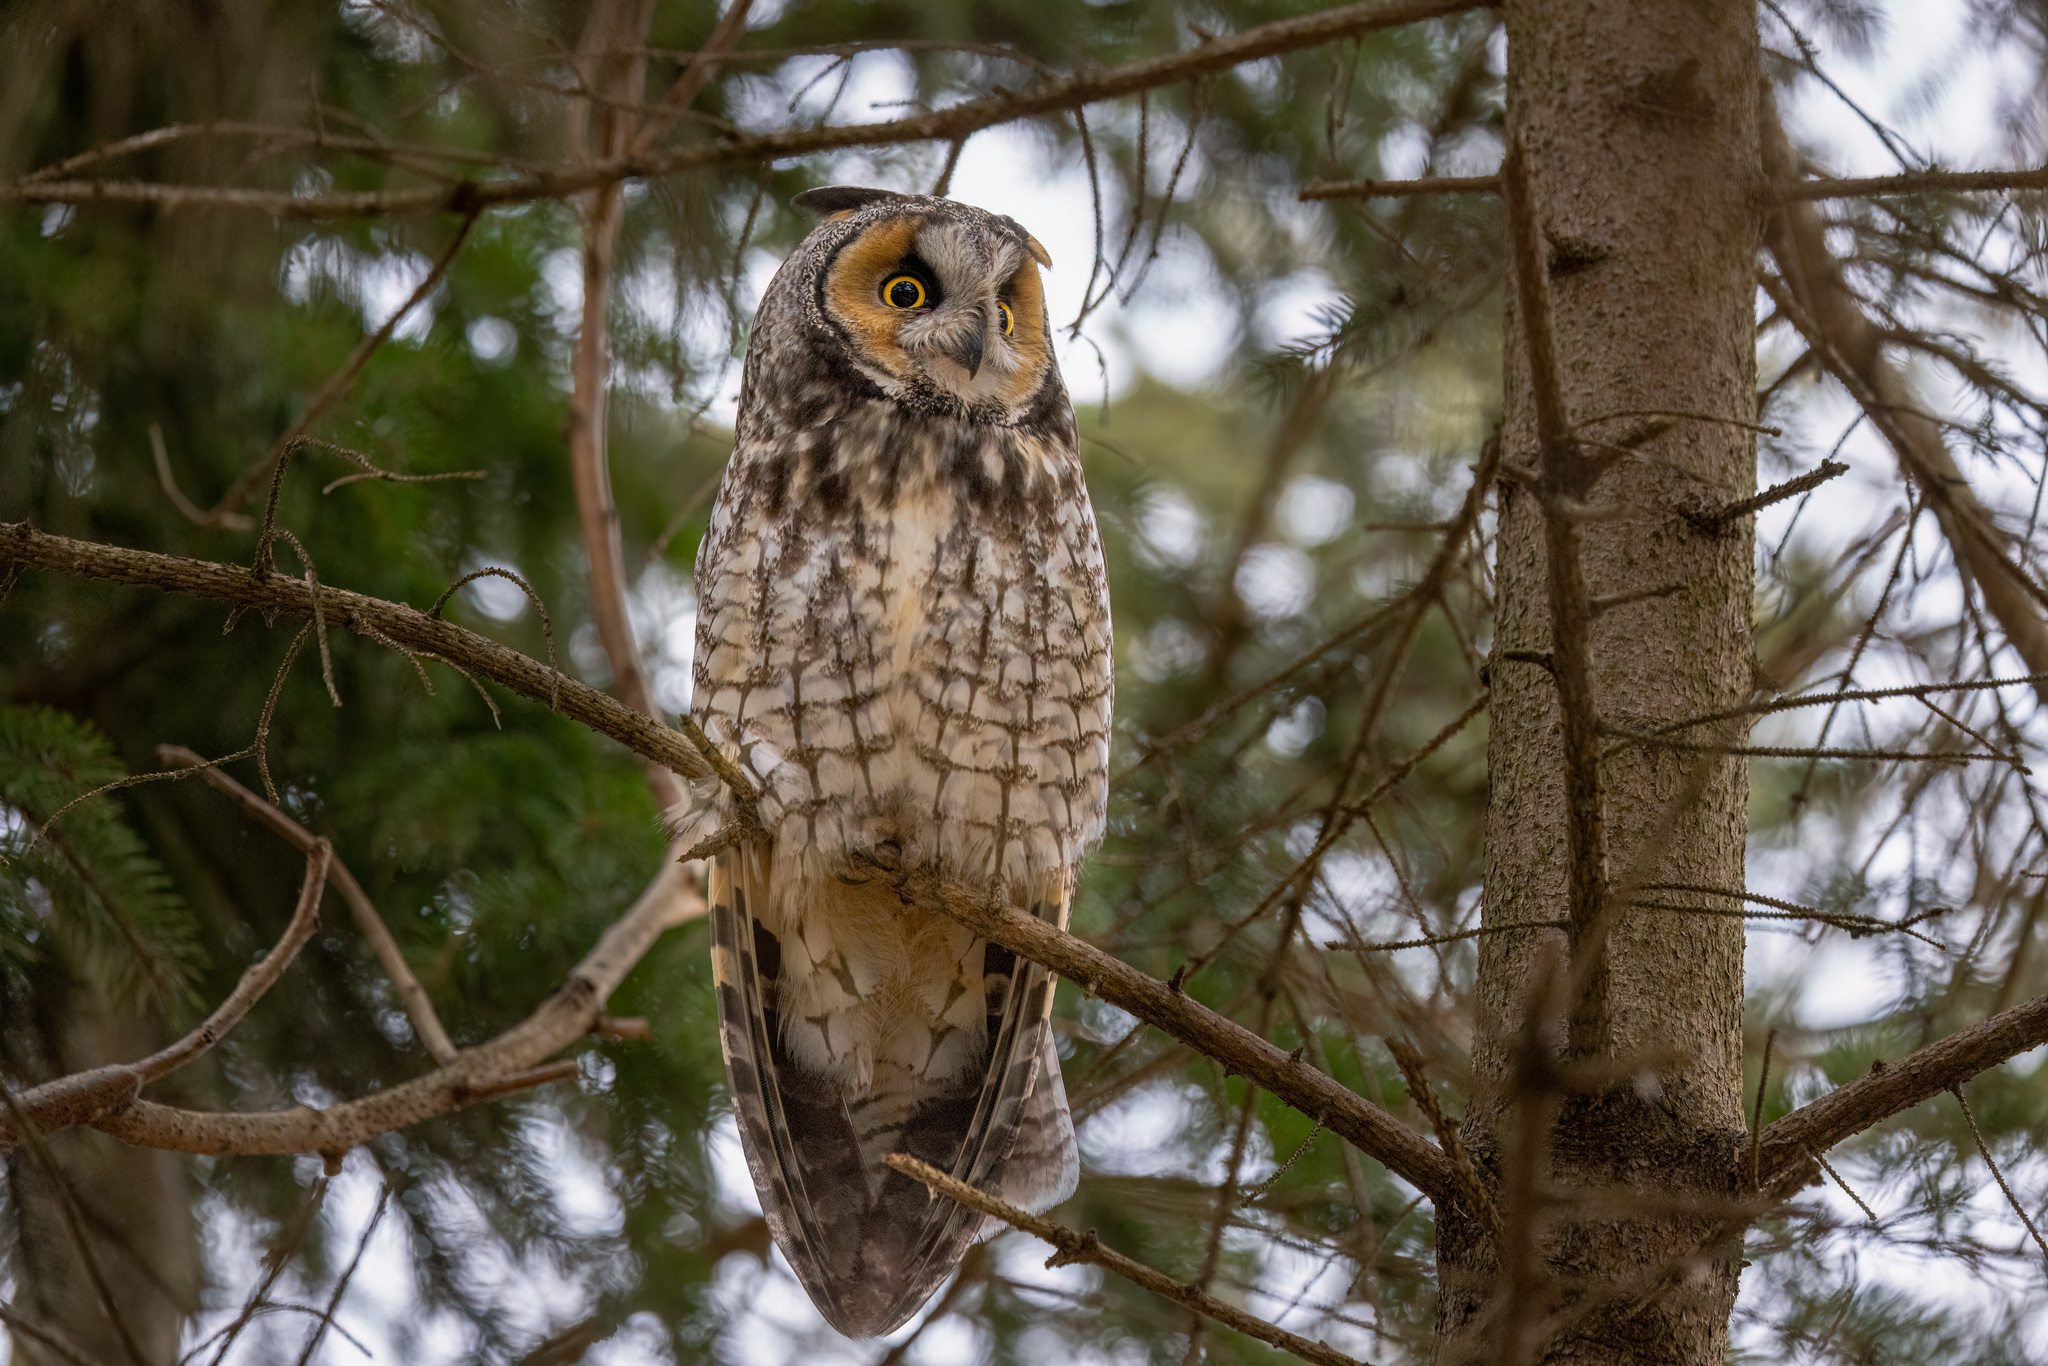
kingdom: Animalia
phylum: Chordata
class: Aves
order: Strigiformes
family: Strigidae
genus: Asio
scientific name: Asio otus
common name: Long-eared owl
